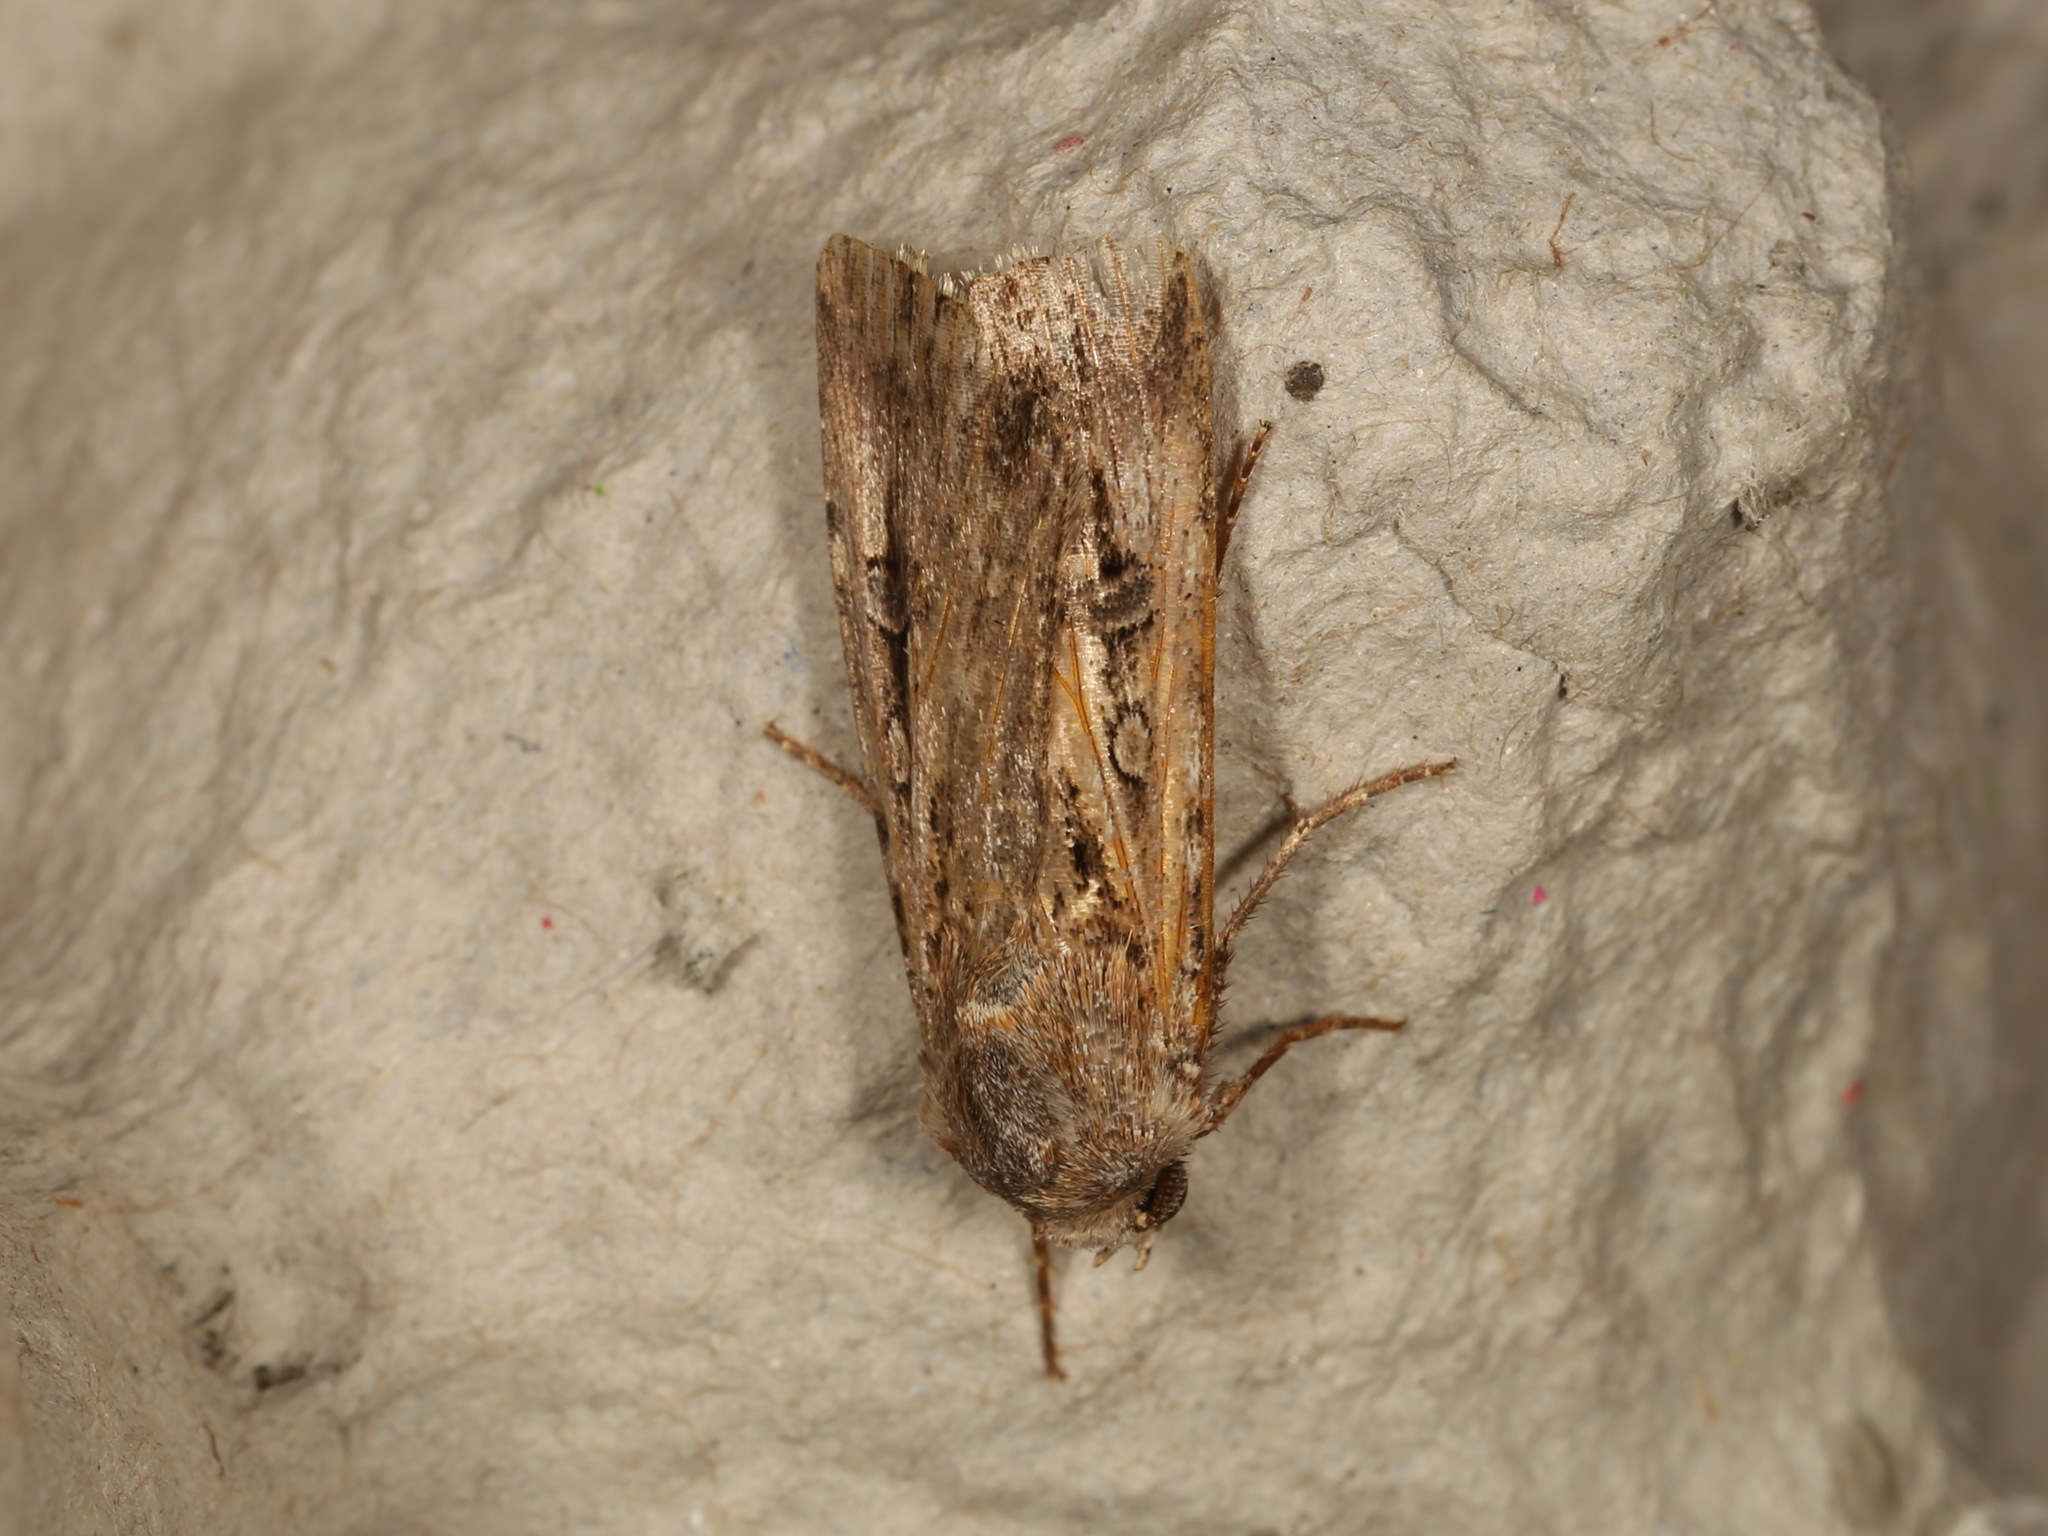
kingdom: Animalia
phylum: Arthropoda
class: Insecta
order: Lepidoptera
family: Noctuidae
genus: Agrotis
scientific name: Agrotis munda
